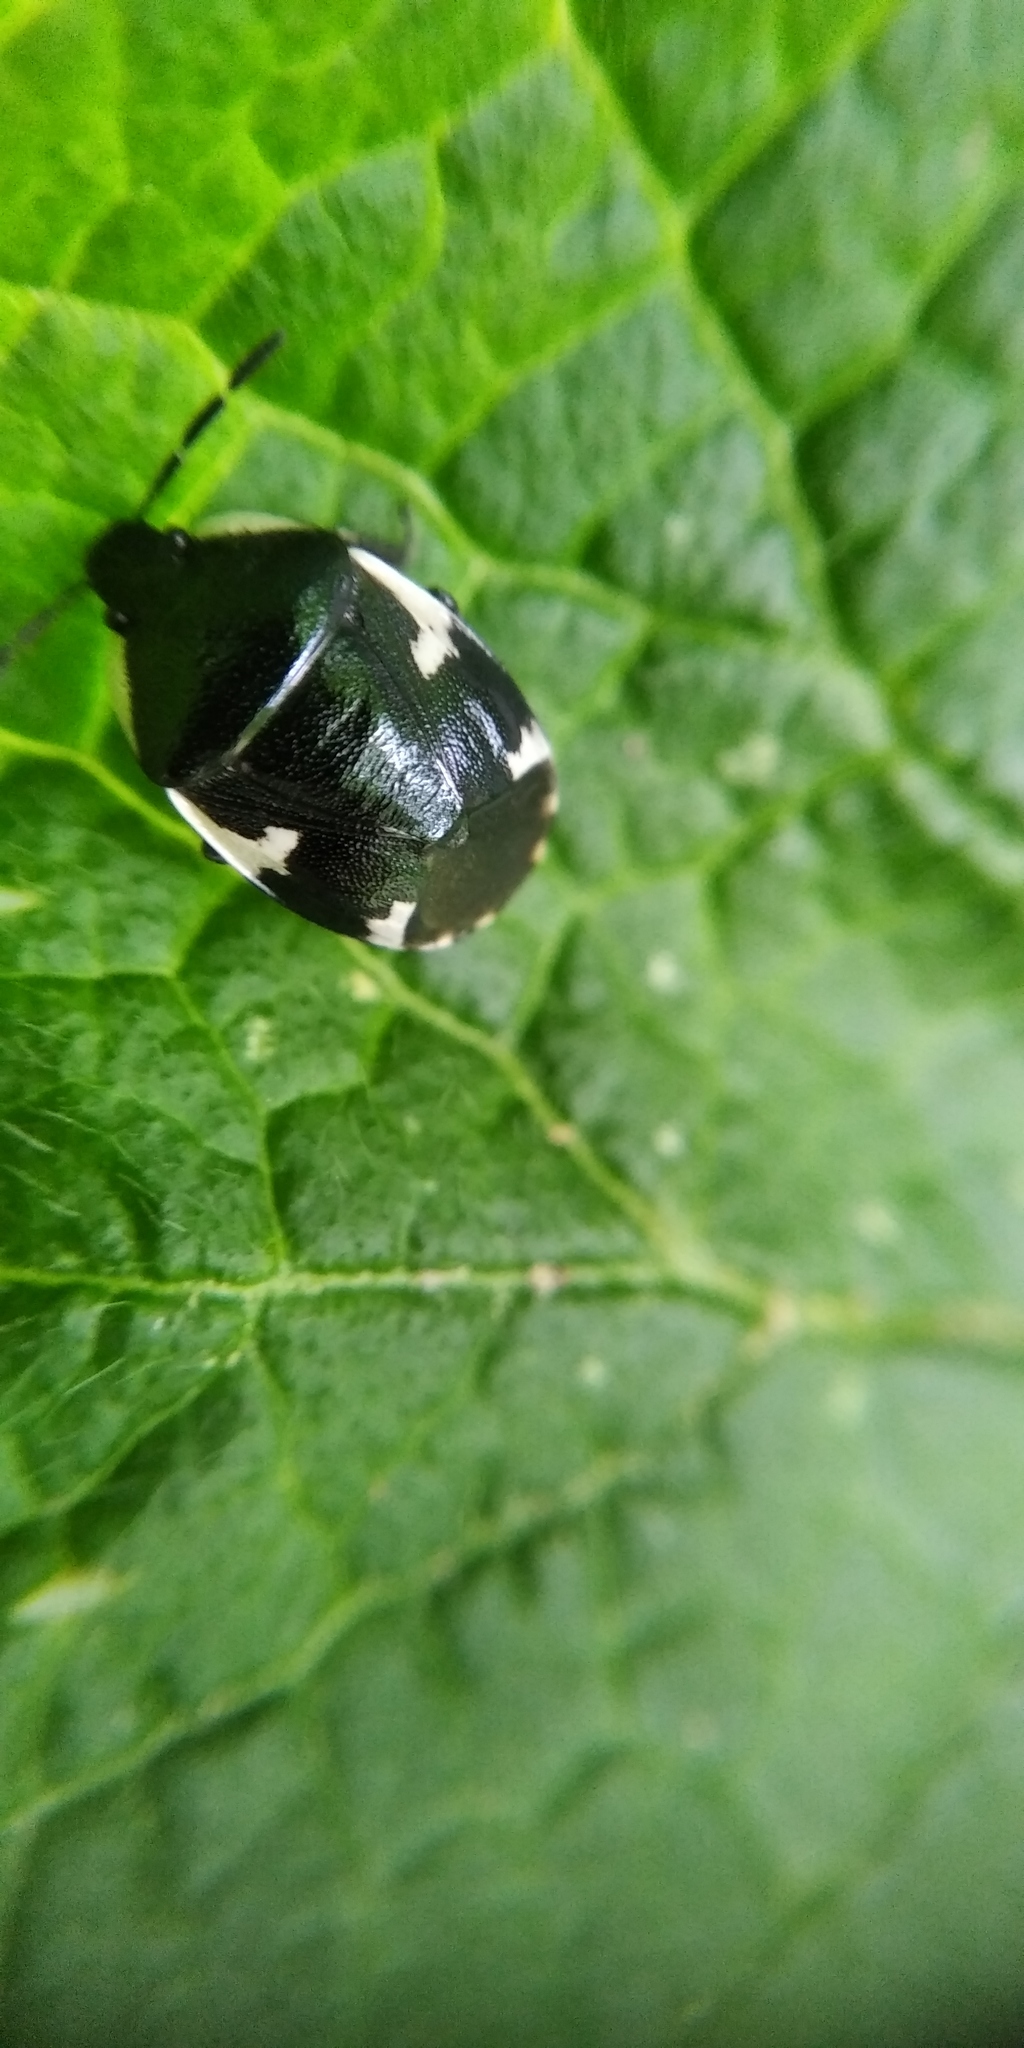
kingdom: Animalia
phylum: Arthropoda
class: Insecta
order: Hemiptera
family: Cydnidae
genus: Tritomegas
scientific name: Tritomegas sexmaculatus
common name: Rambur's pied shieldbug
